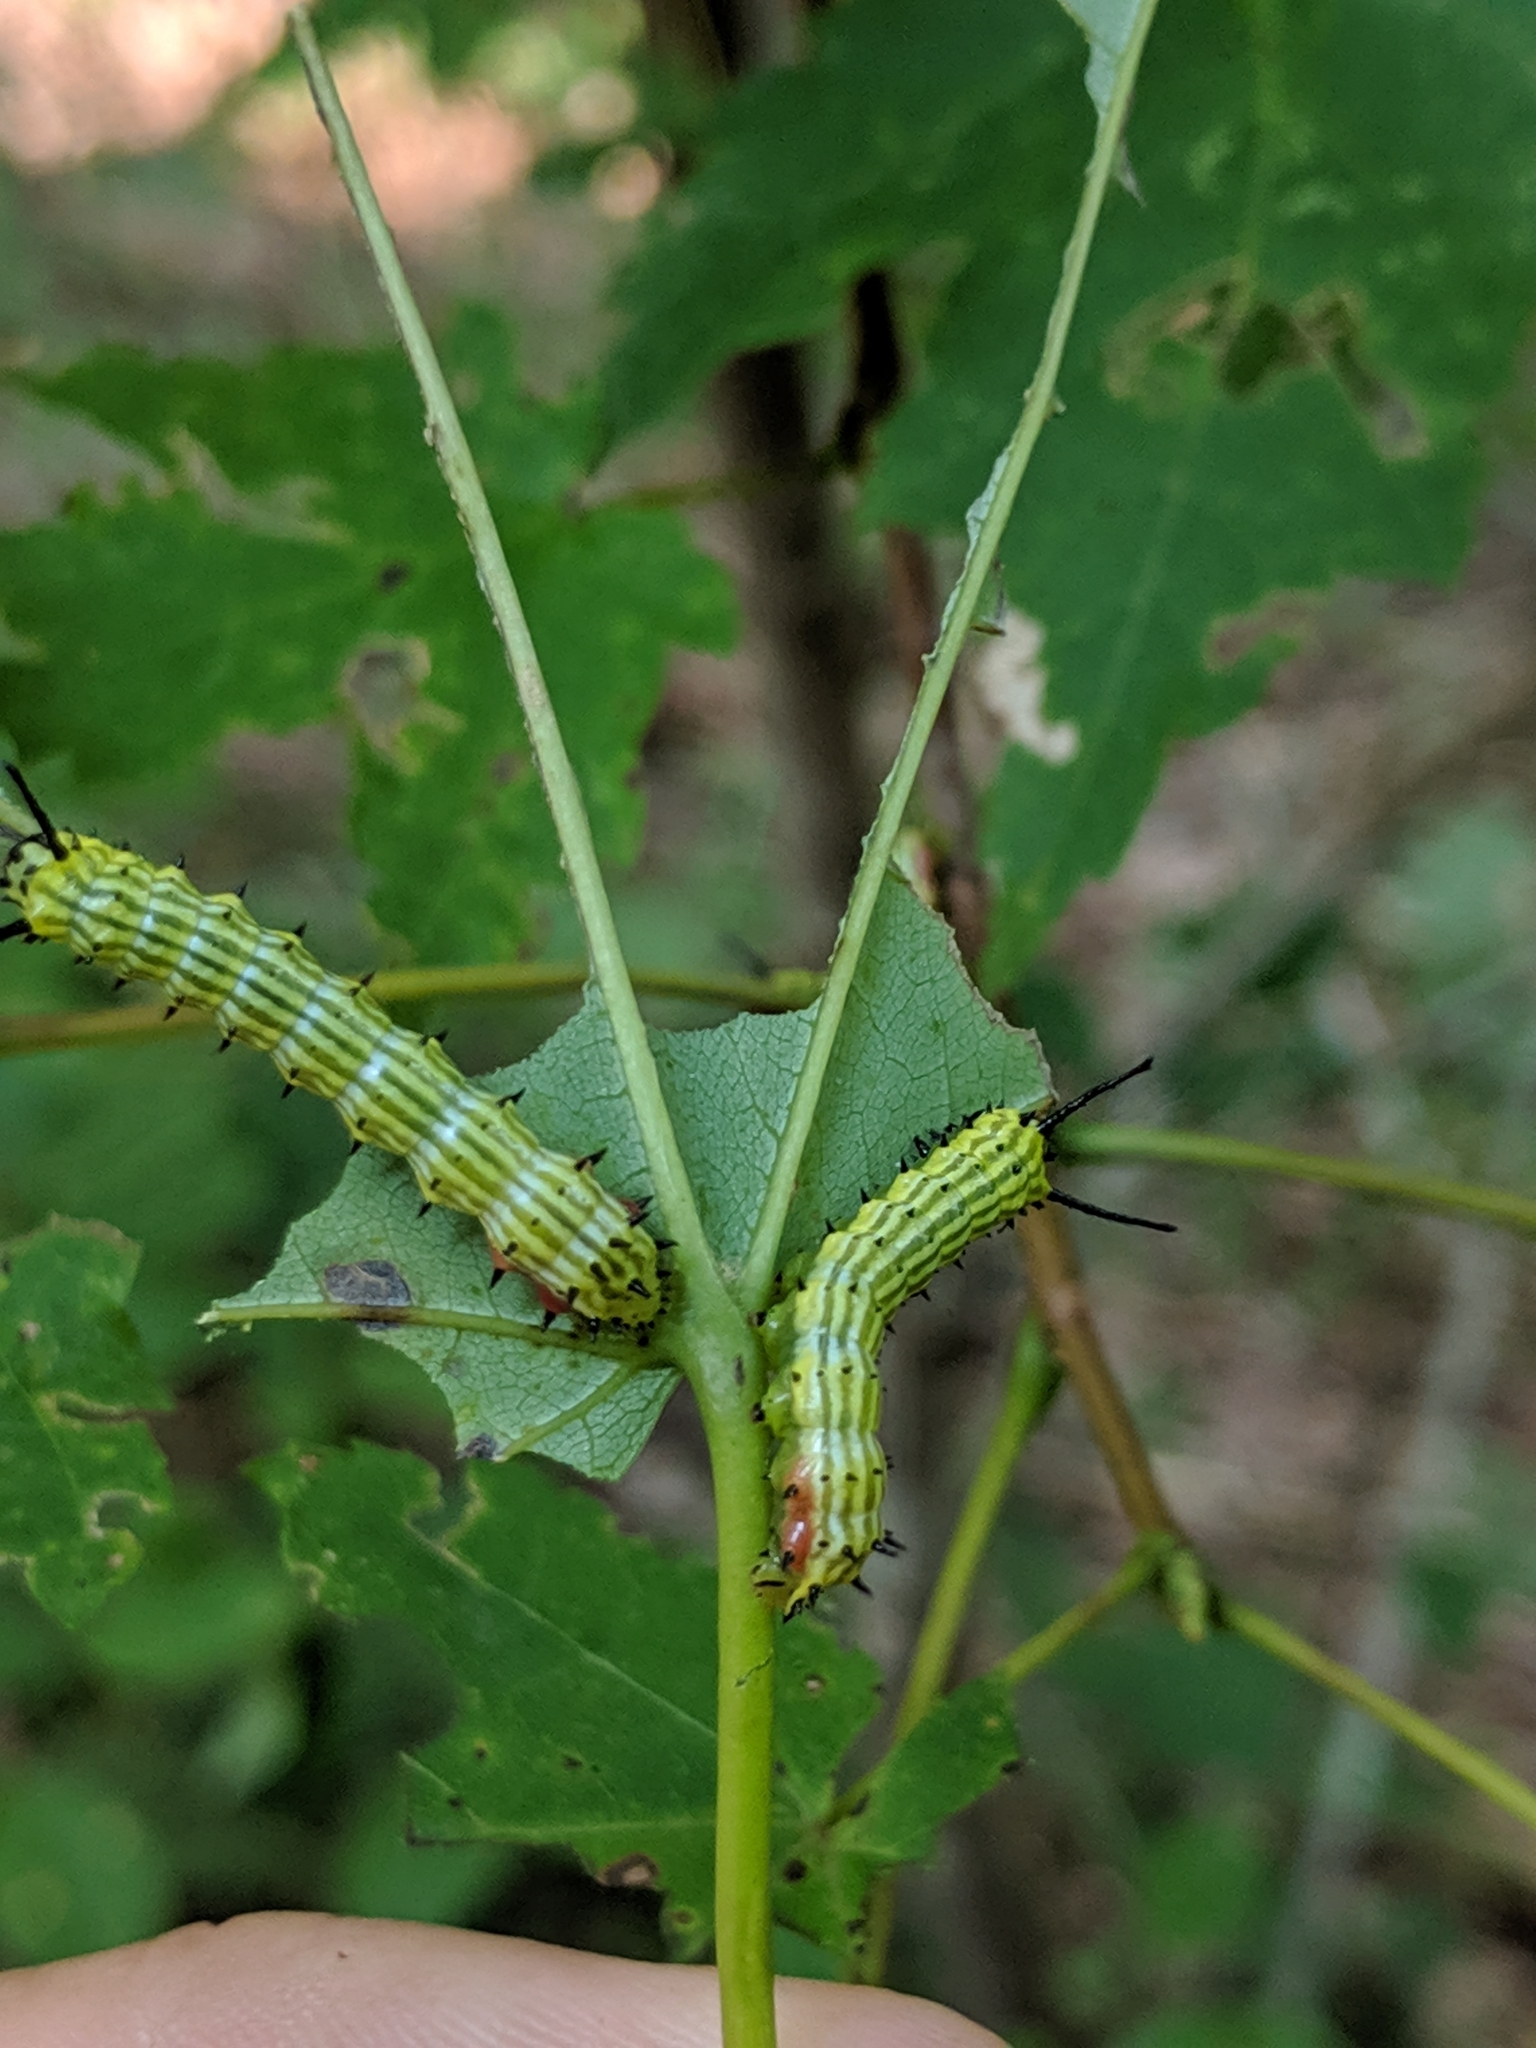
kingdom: Animalia
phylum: Arthropoda
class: Insecta
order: Lepidoptera
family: Saturniidae
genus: Dryocampa
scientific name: Dryocampa rubicunda
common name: Rosy maple moth
